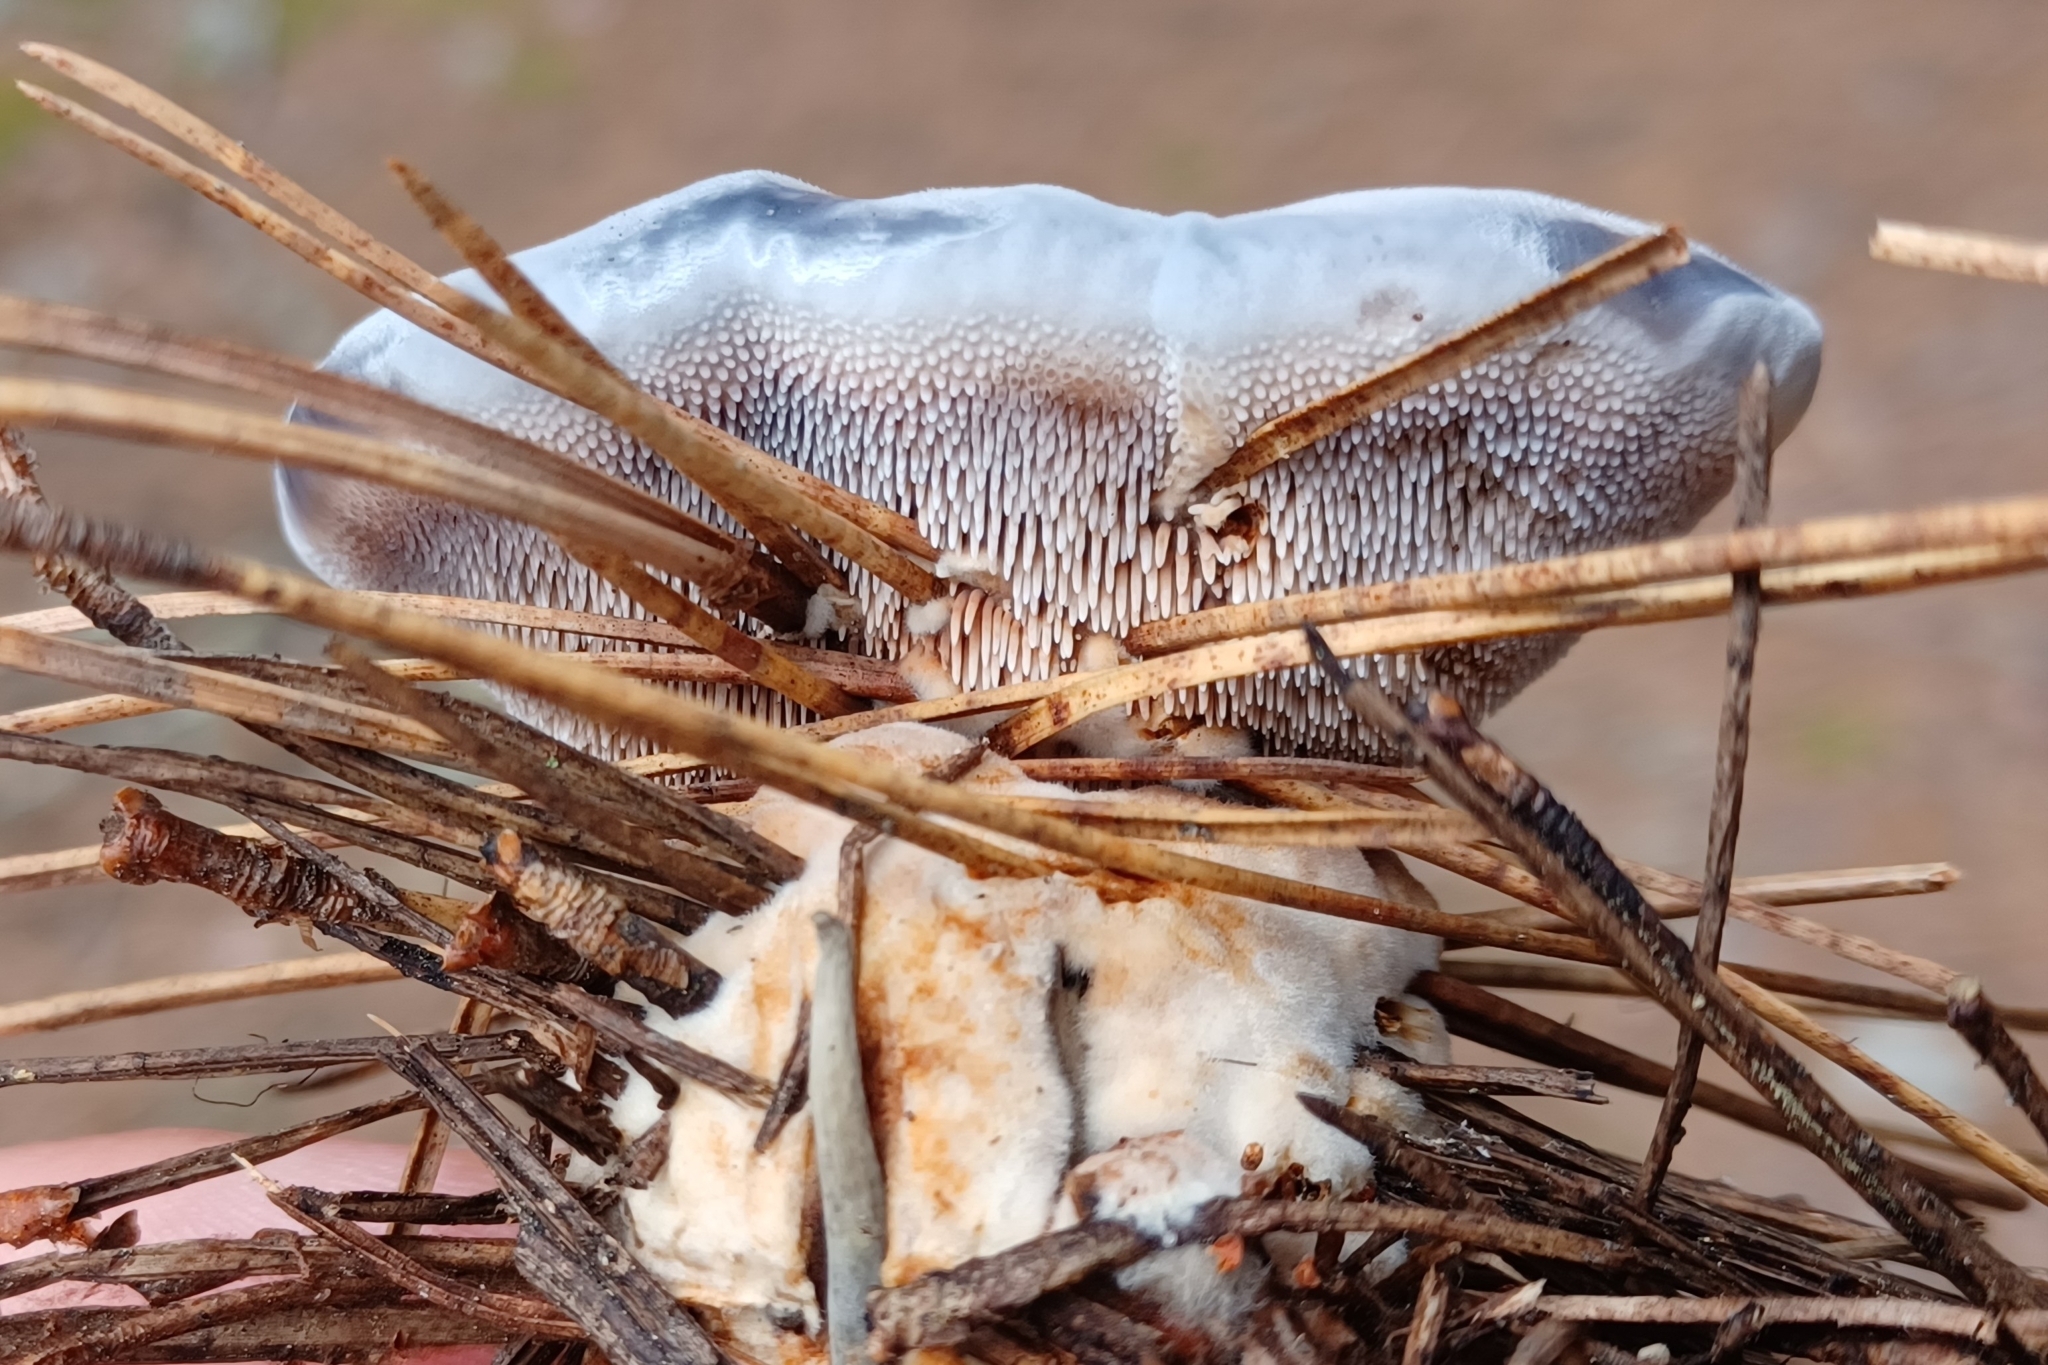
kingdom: Fungi
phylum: Basidiomycota
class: Agaricomycetes
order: Thelephorales
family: Bankeraceae
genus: Hydnellum
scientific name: Hydnellum caeruleum
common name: Blue corky spine fungus
